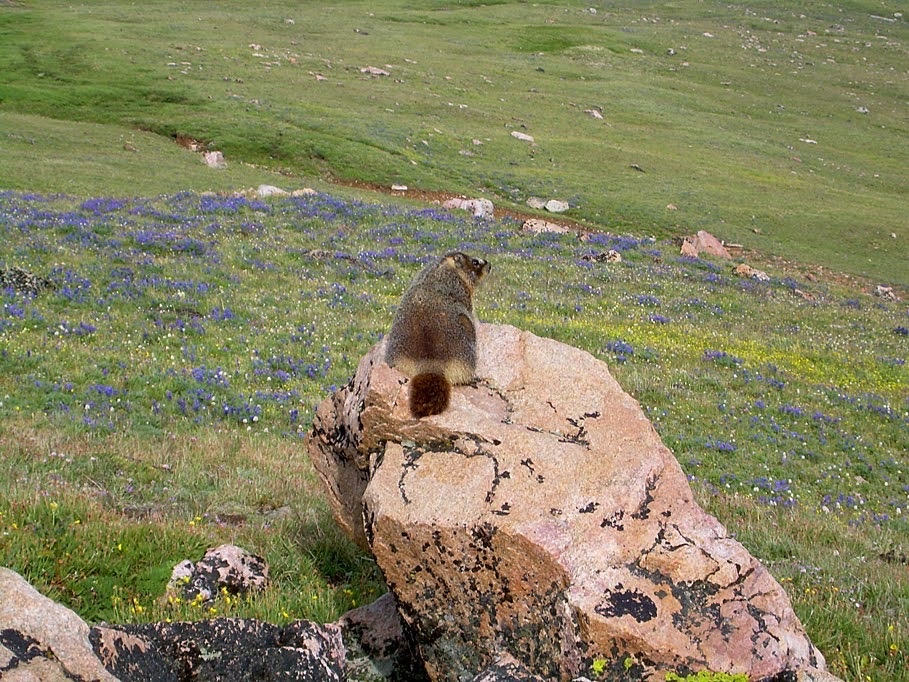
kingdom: Animalia
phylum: Chordata
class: Mammalia
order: Rodentia
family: Sciuridae
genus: Marmota
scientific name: Marmota flaviventris
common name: Yellow-bellied marmot
